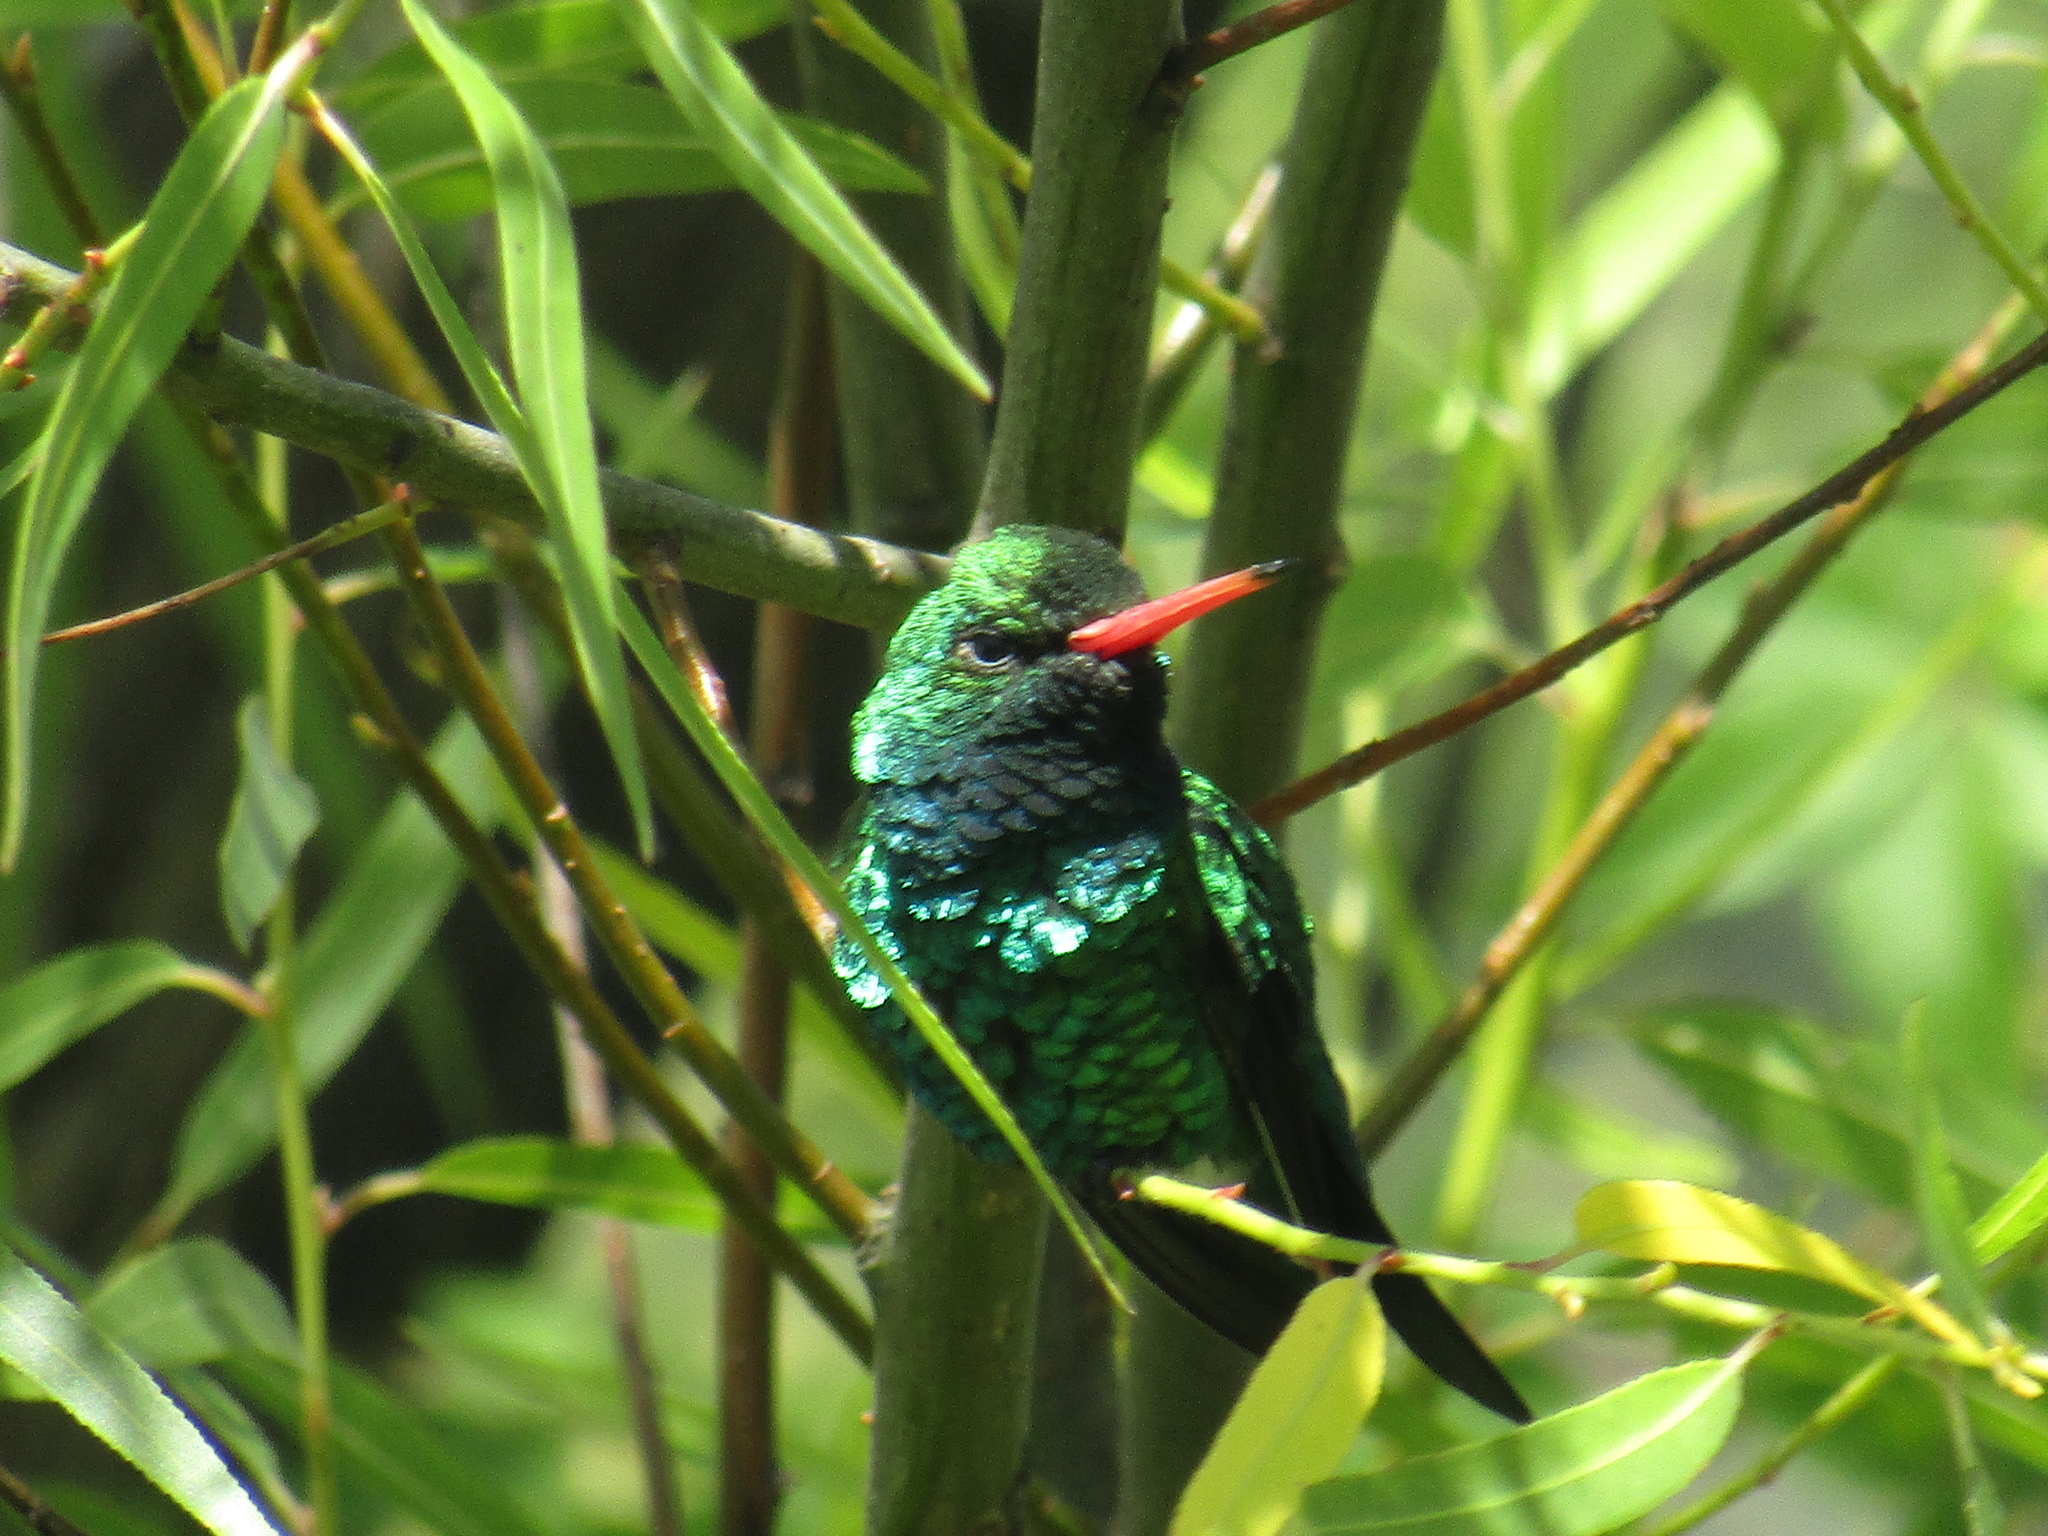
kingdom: Animalia
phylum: Chordata
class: Aves
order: Apodiformes
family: Trochilidae
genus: Chlorostilbon
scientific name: Chlorostilbon lucidus
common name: Glittering-bellied emerald
